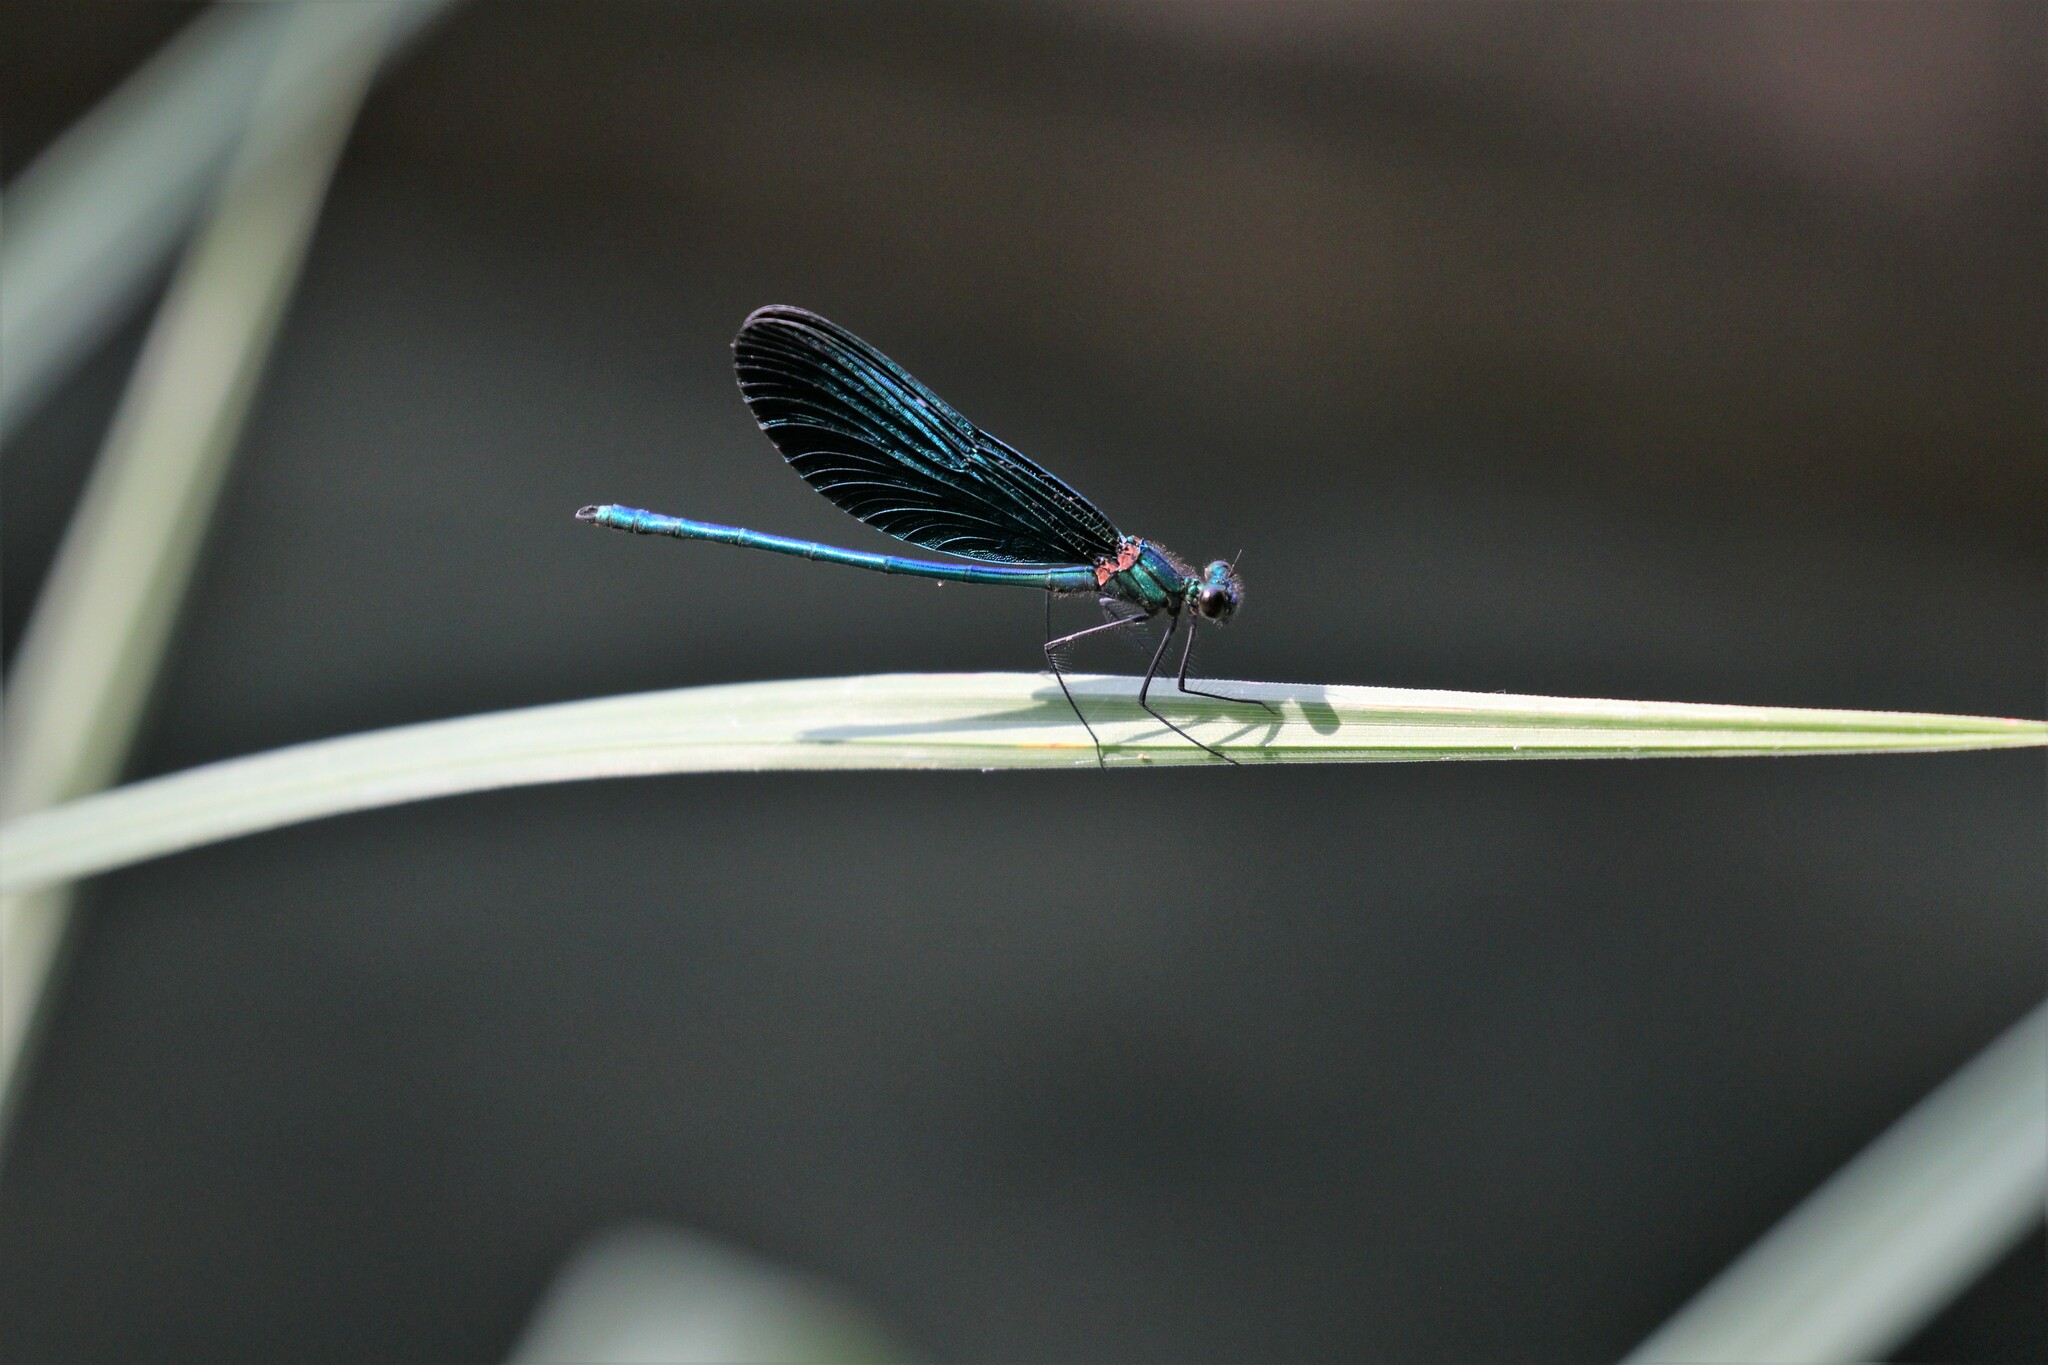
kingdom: Animalia
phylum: Arthropoda
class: Insecta
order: Odonata
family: Calopterygidae
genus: Calopteryx
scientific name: Calopteryx virgo
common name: Beautiful demoiselle
